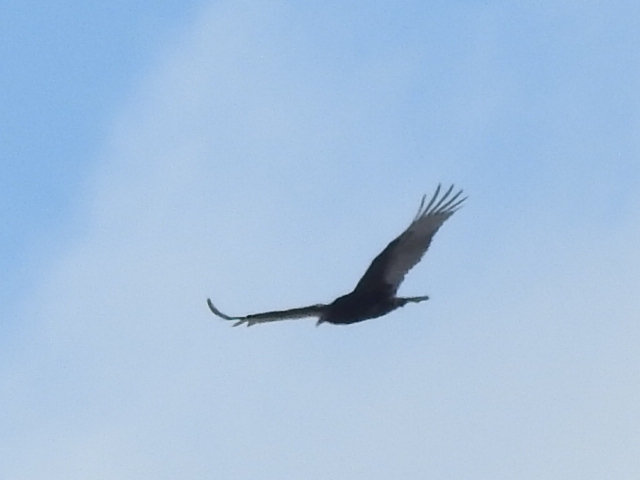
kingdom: Animalia
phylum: Chordata
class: Aves
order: Accipitriformes
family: Cathartidae
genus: Cathartes
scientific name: Cathartes aura
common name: Turkey vulture
